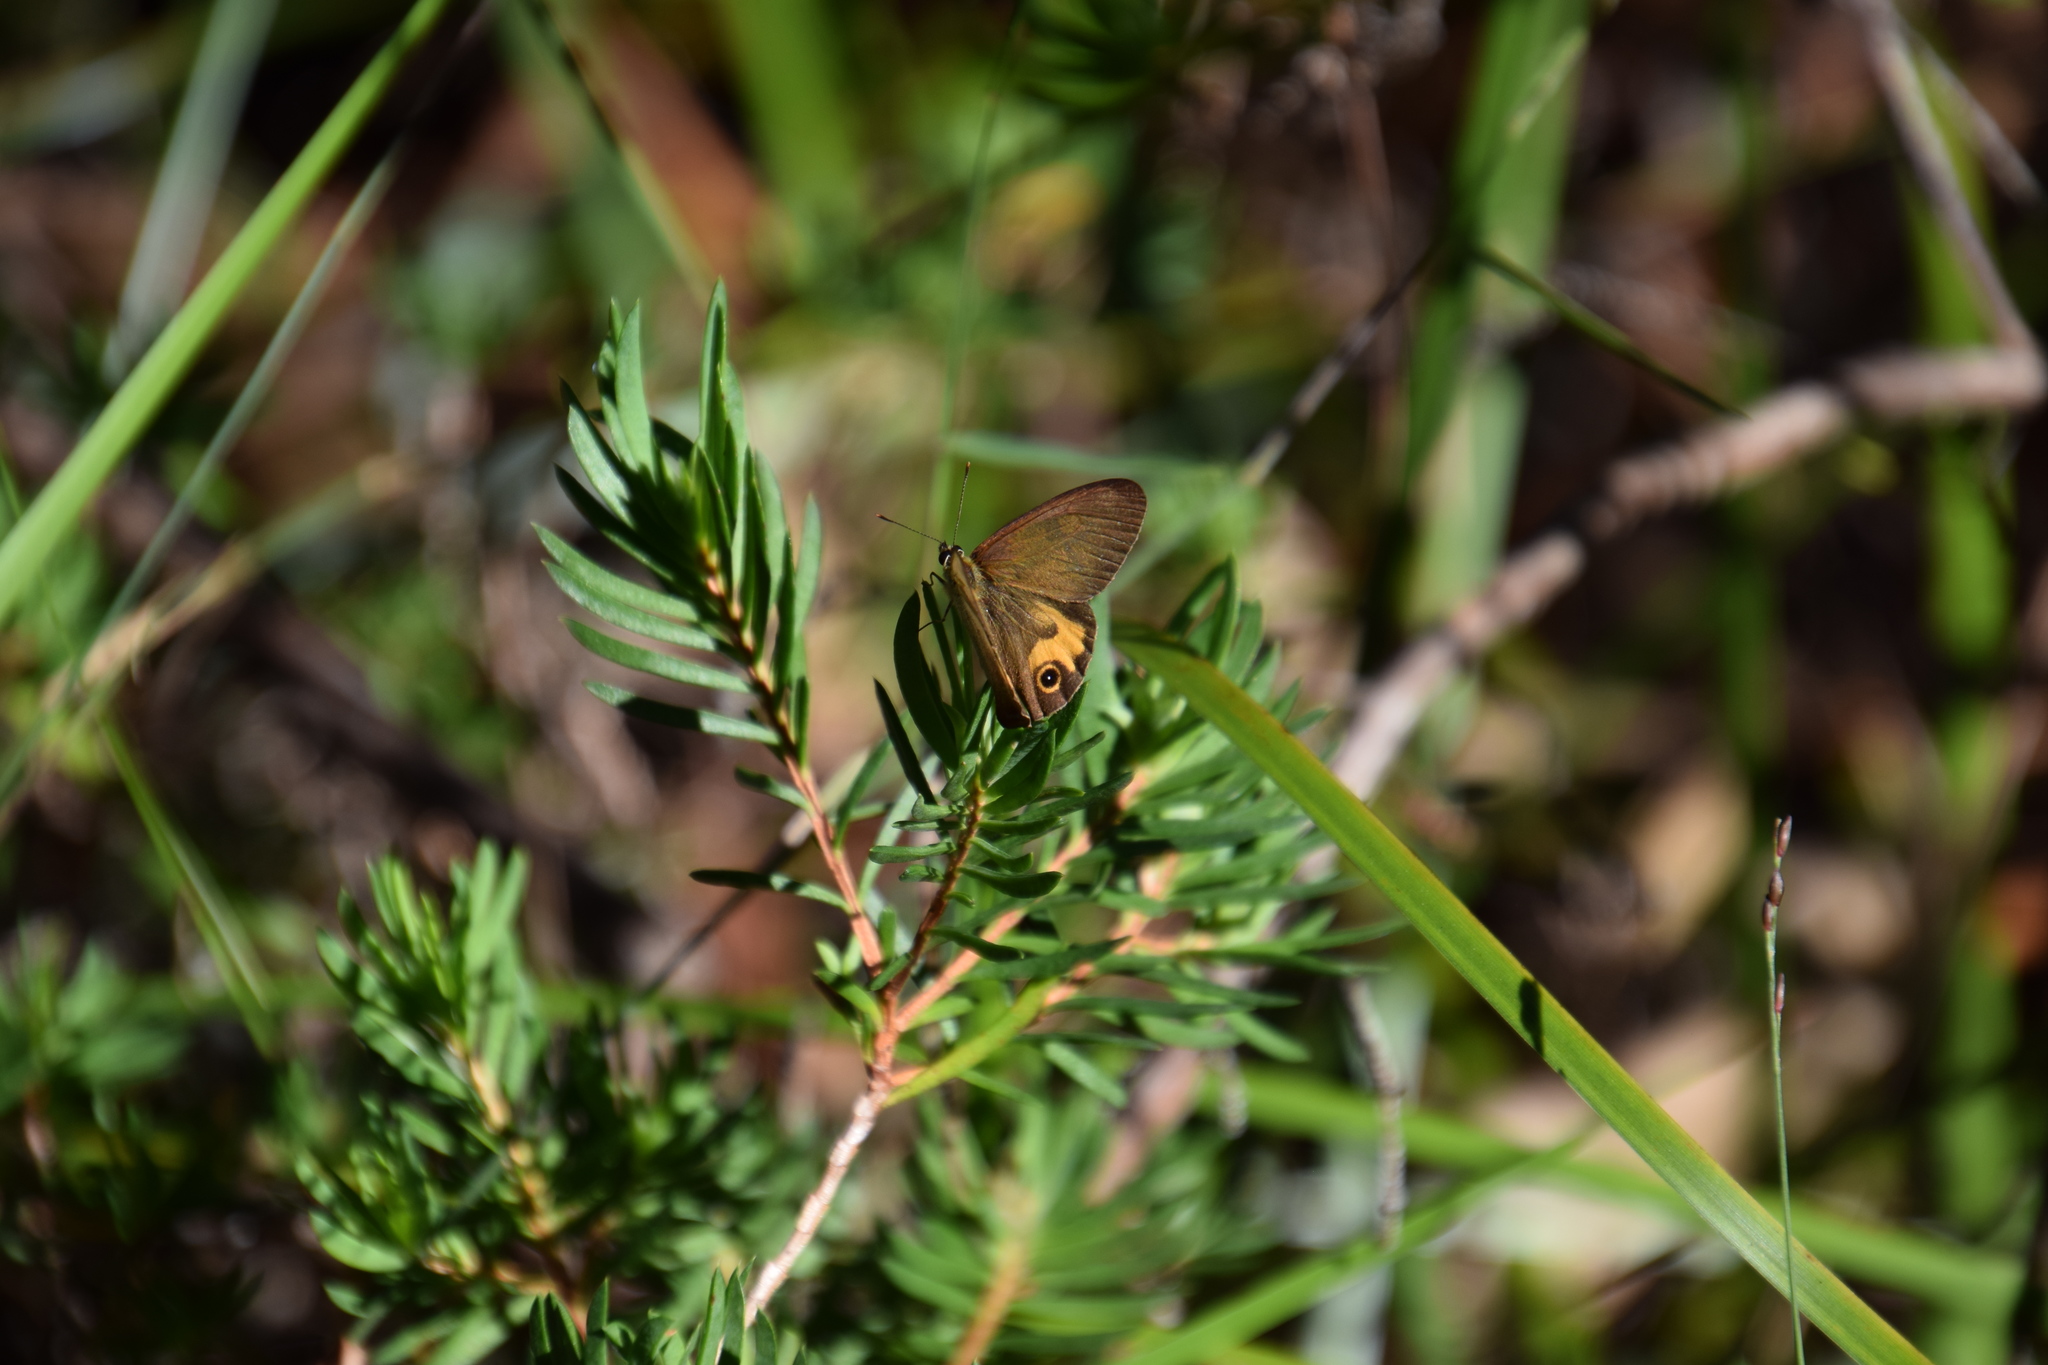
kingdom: Animalia
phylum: Arthropoda
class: Insecta
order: Lepidoptera
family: Nymphalidae
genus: Hypocysta
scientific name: Hypocysta metirius
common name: Brown ringlet
